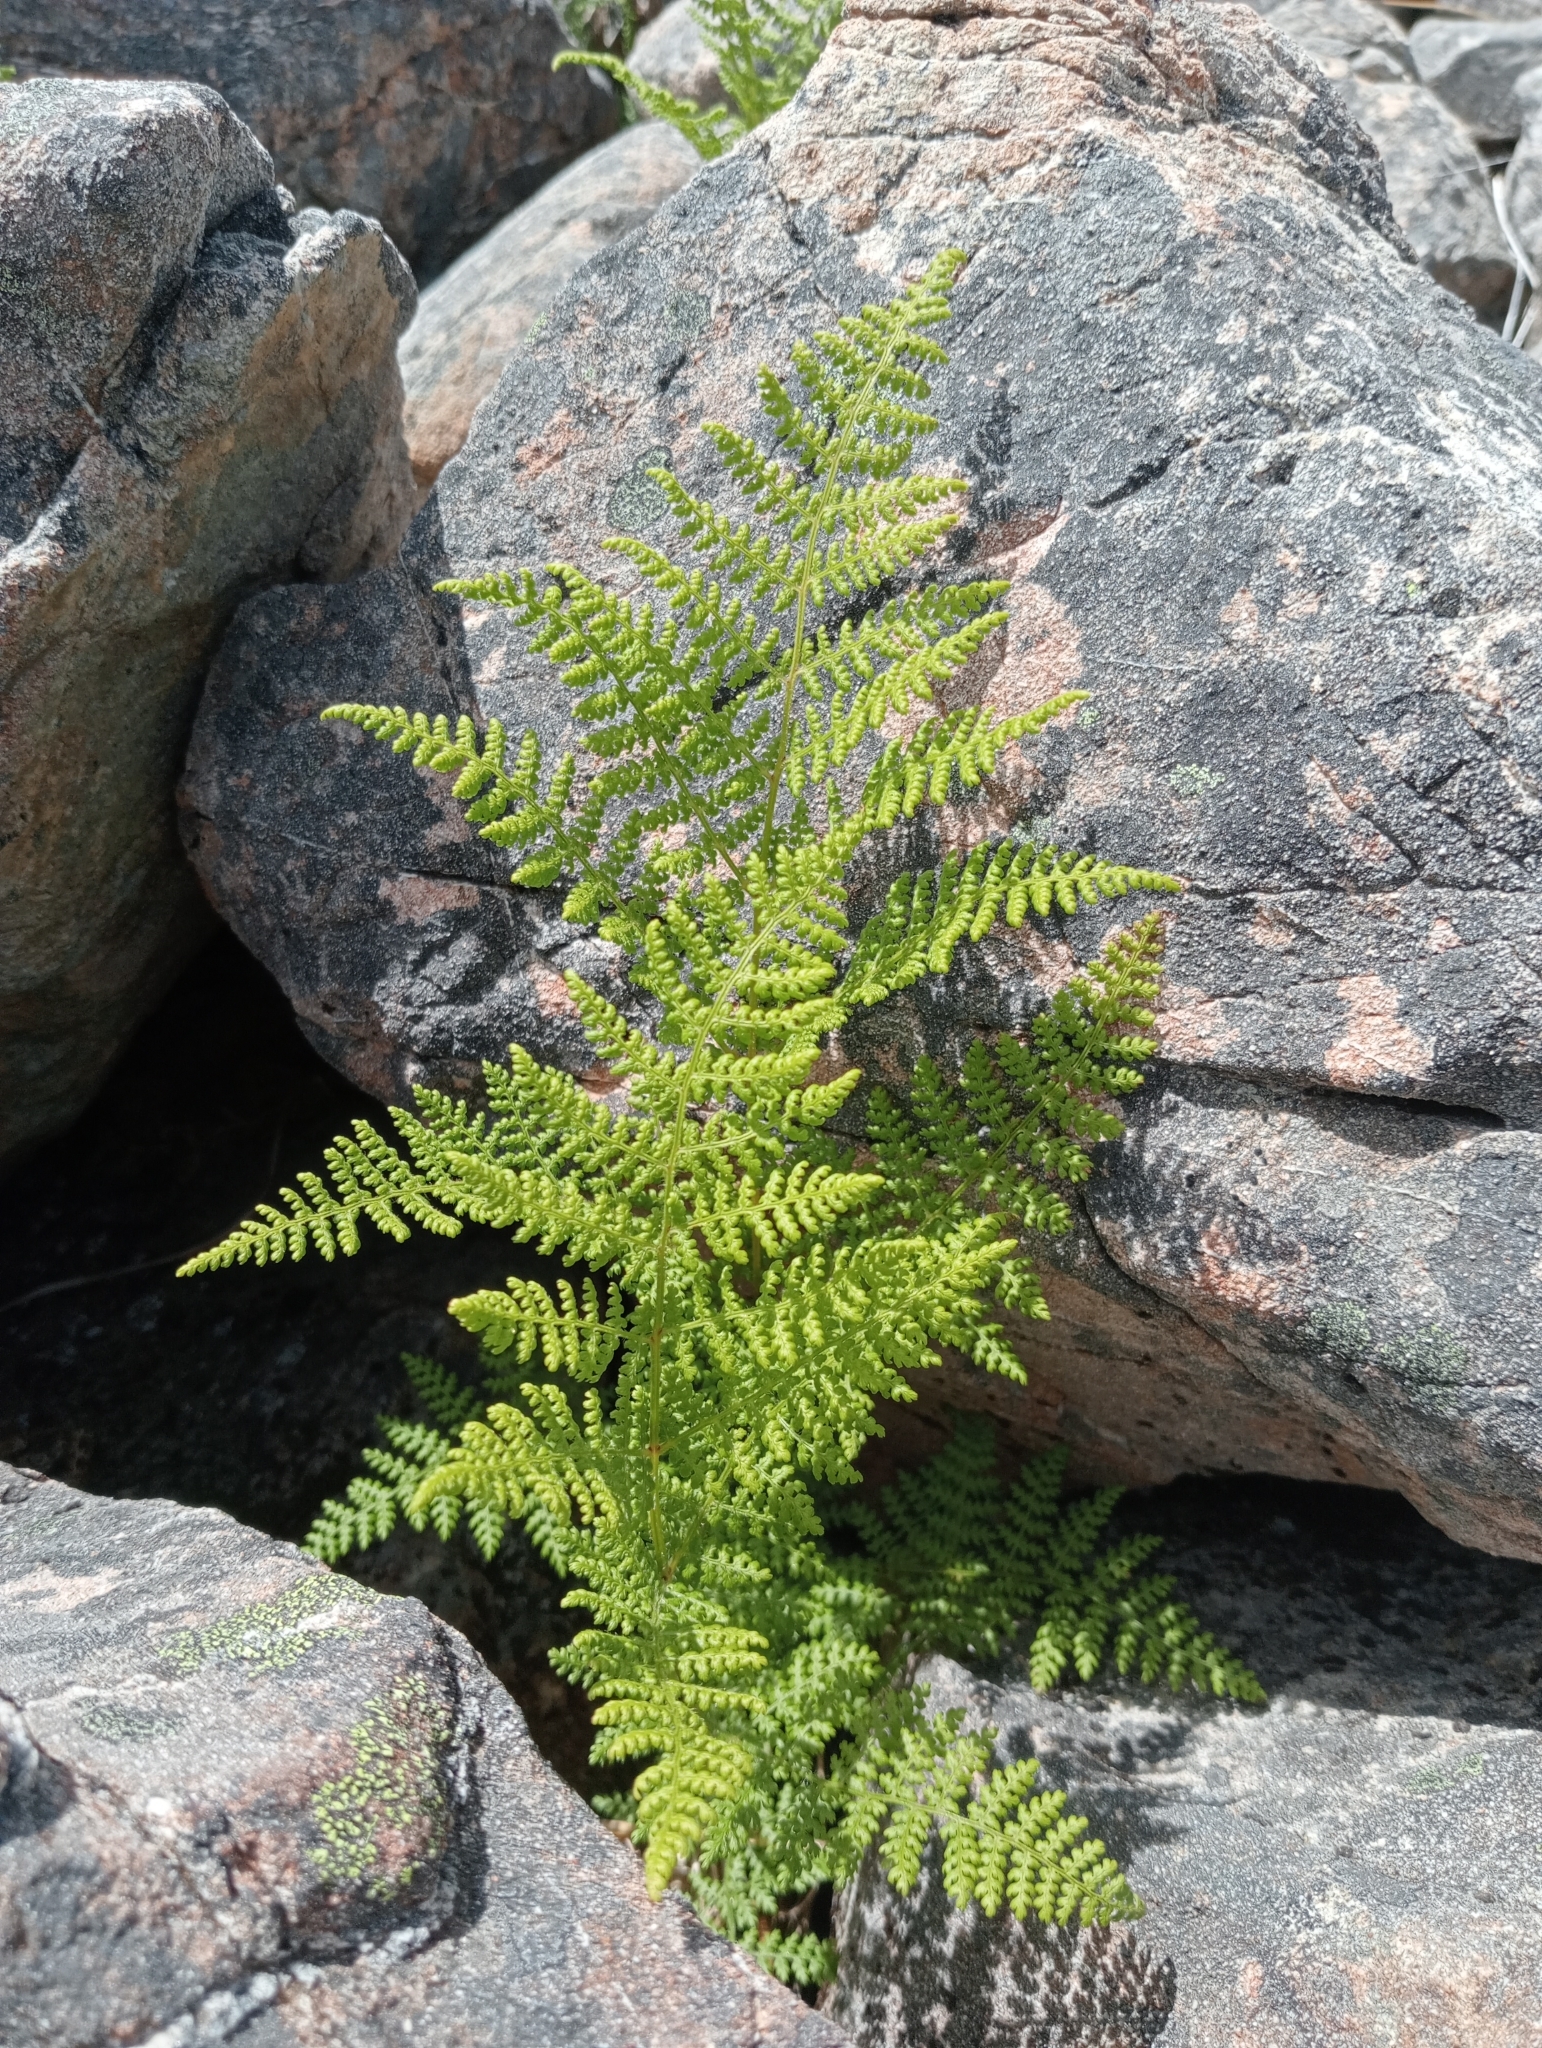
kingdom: Plantae
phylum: Tracheophyta
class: Polypodiopsida
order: Polypodiales
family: Dennstaedtiaceae
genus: Hypolepis
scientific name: Hypolepis millefolium
